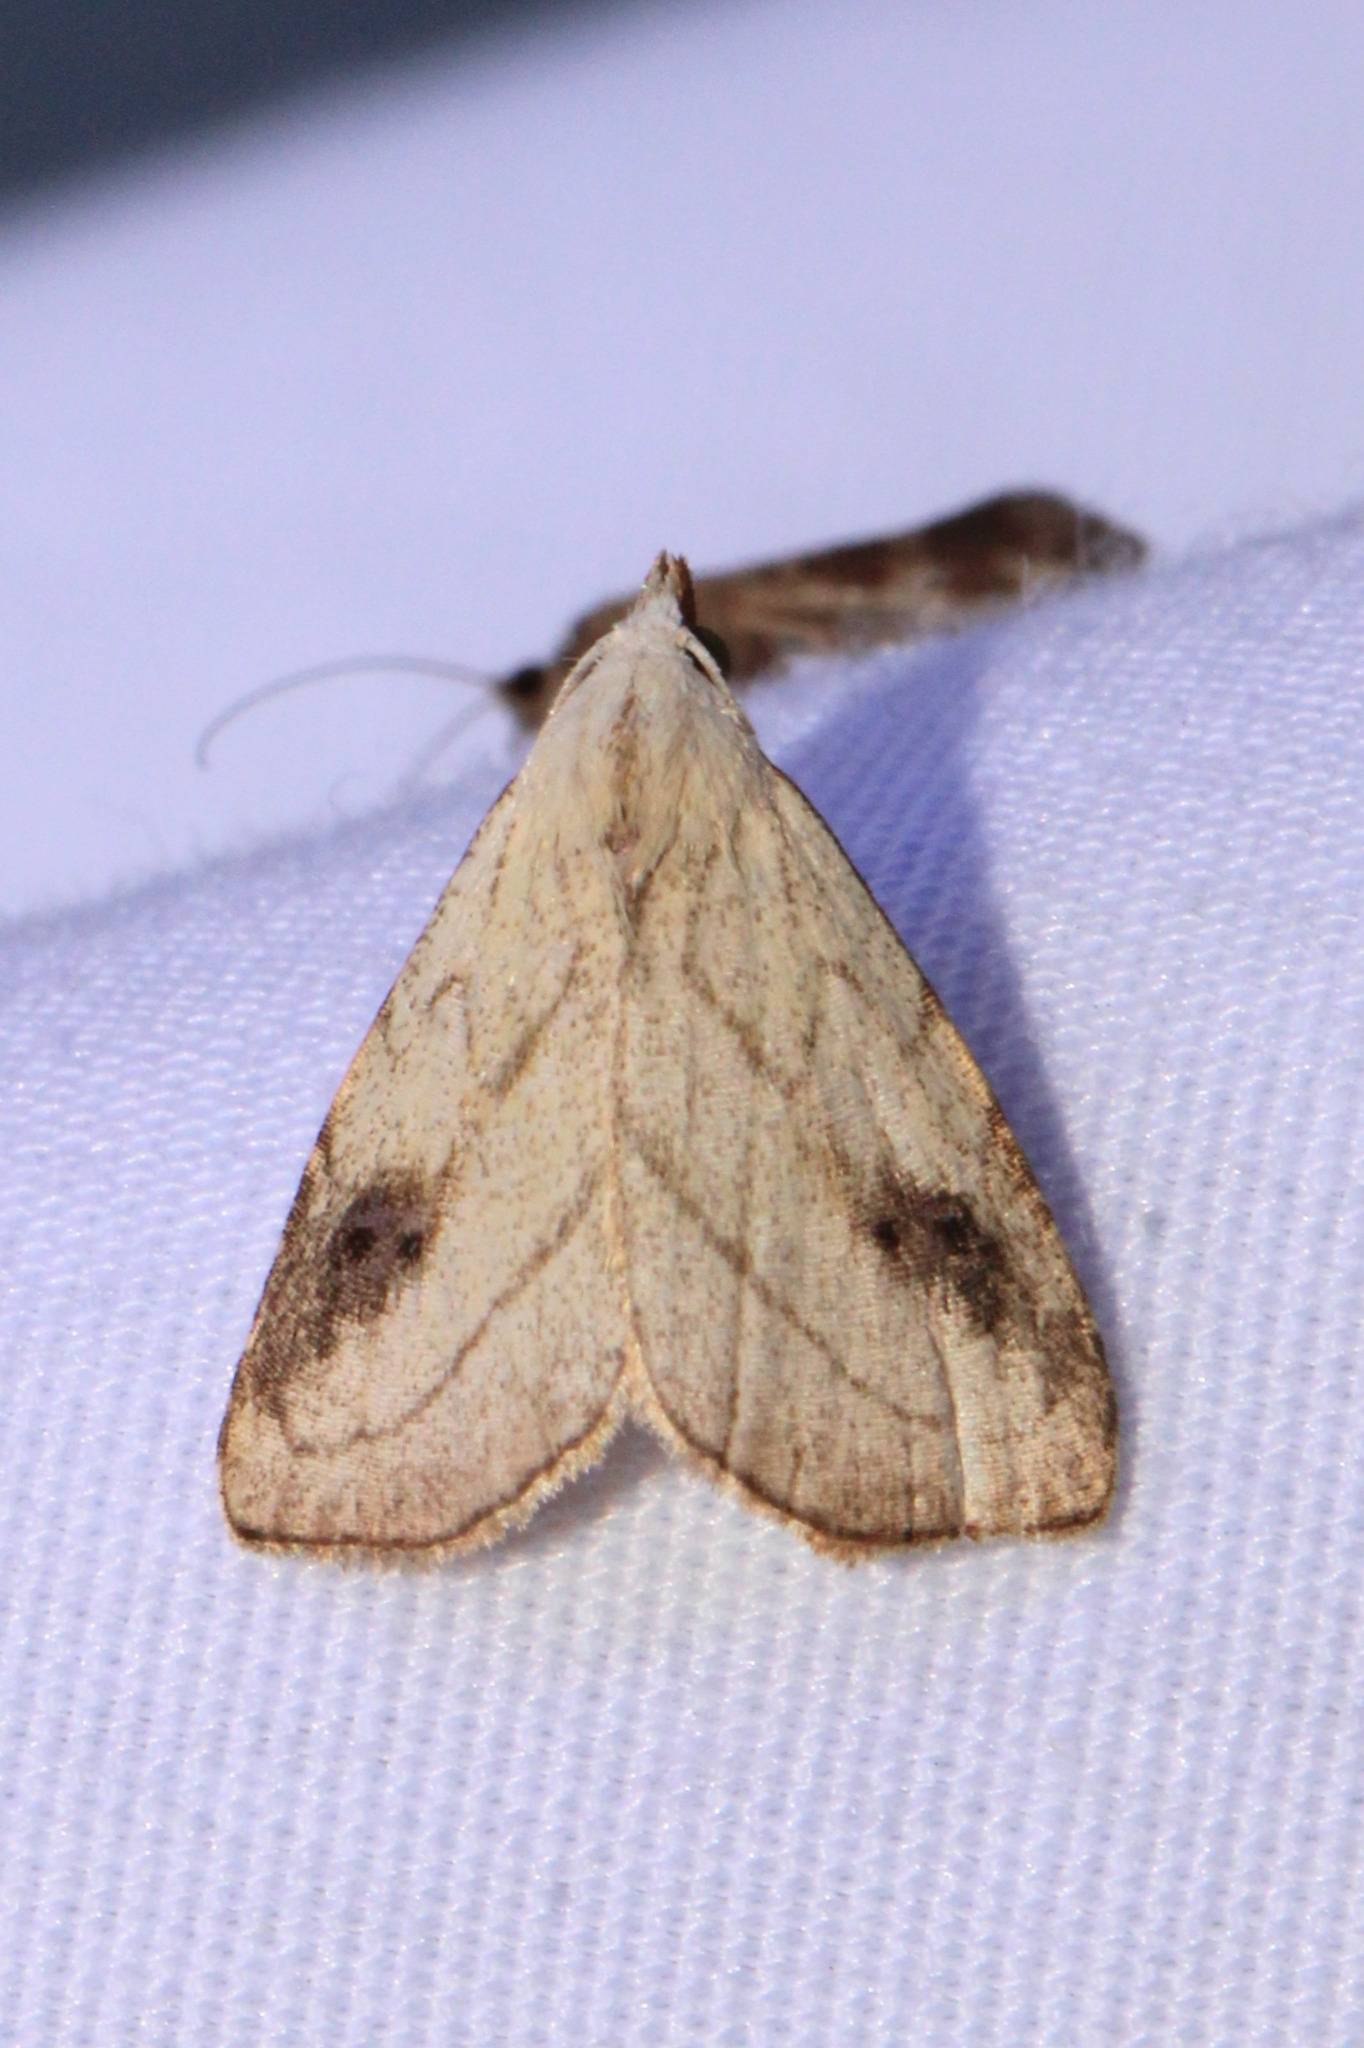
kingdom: Animalia
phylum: Arthropoda
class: Insecta
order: Lepidoptera
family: Erebidae
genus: Rivula
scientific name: Rivula propinqualis
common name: Spotted grass moth
